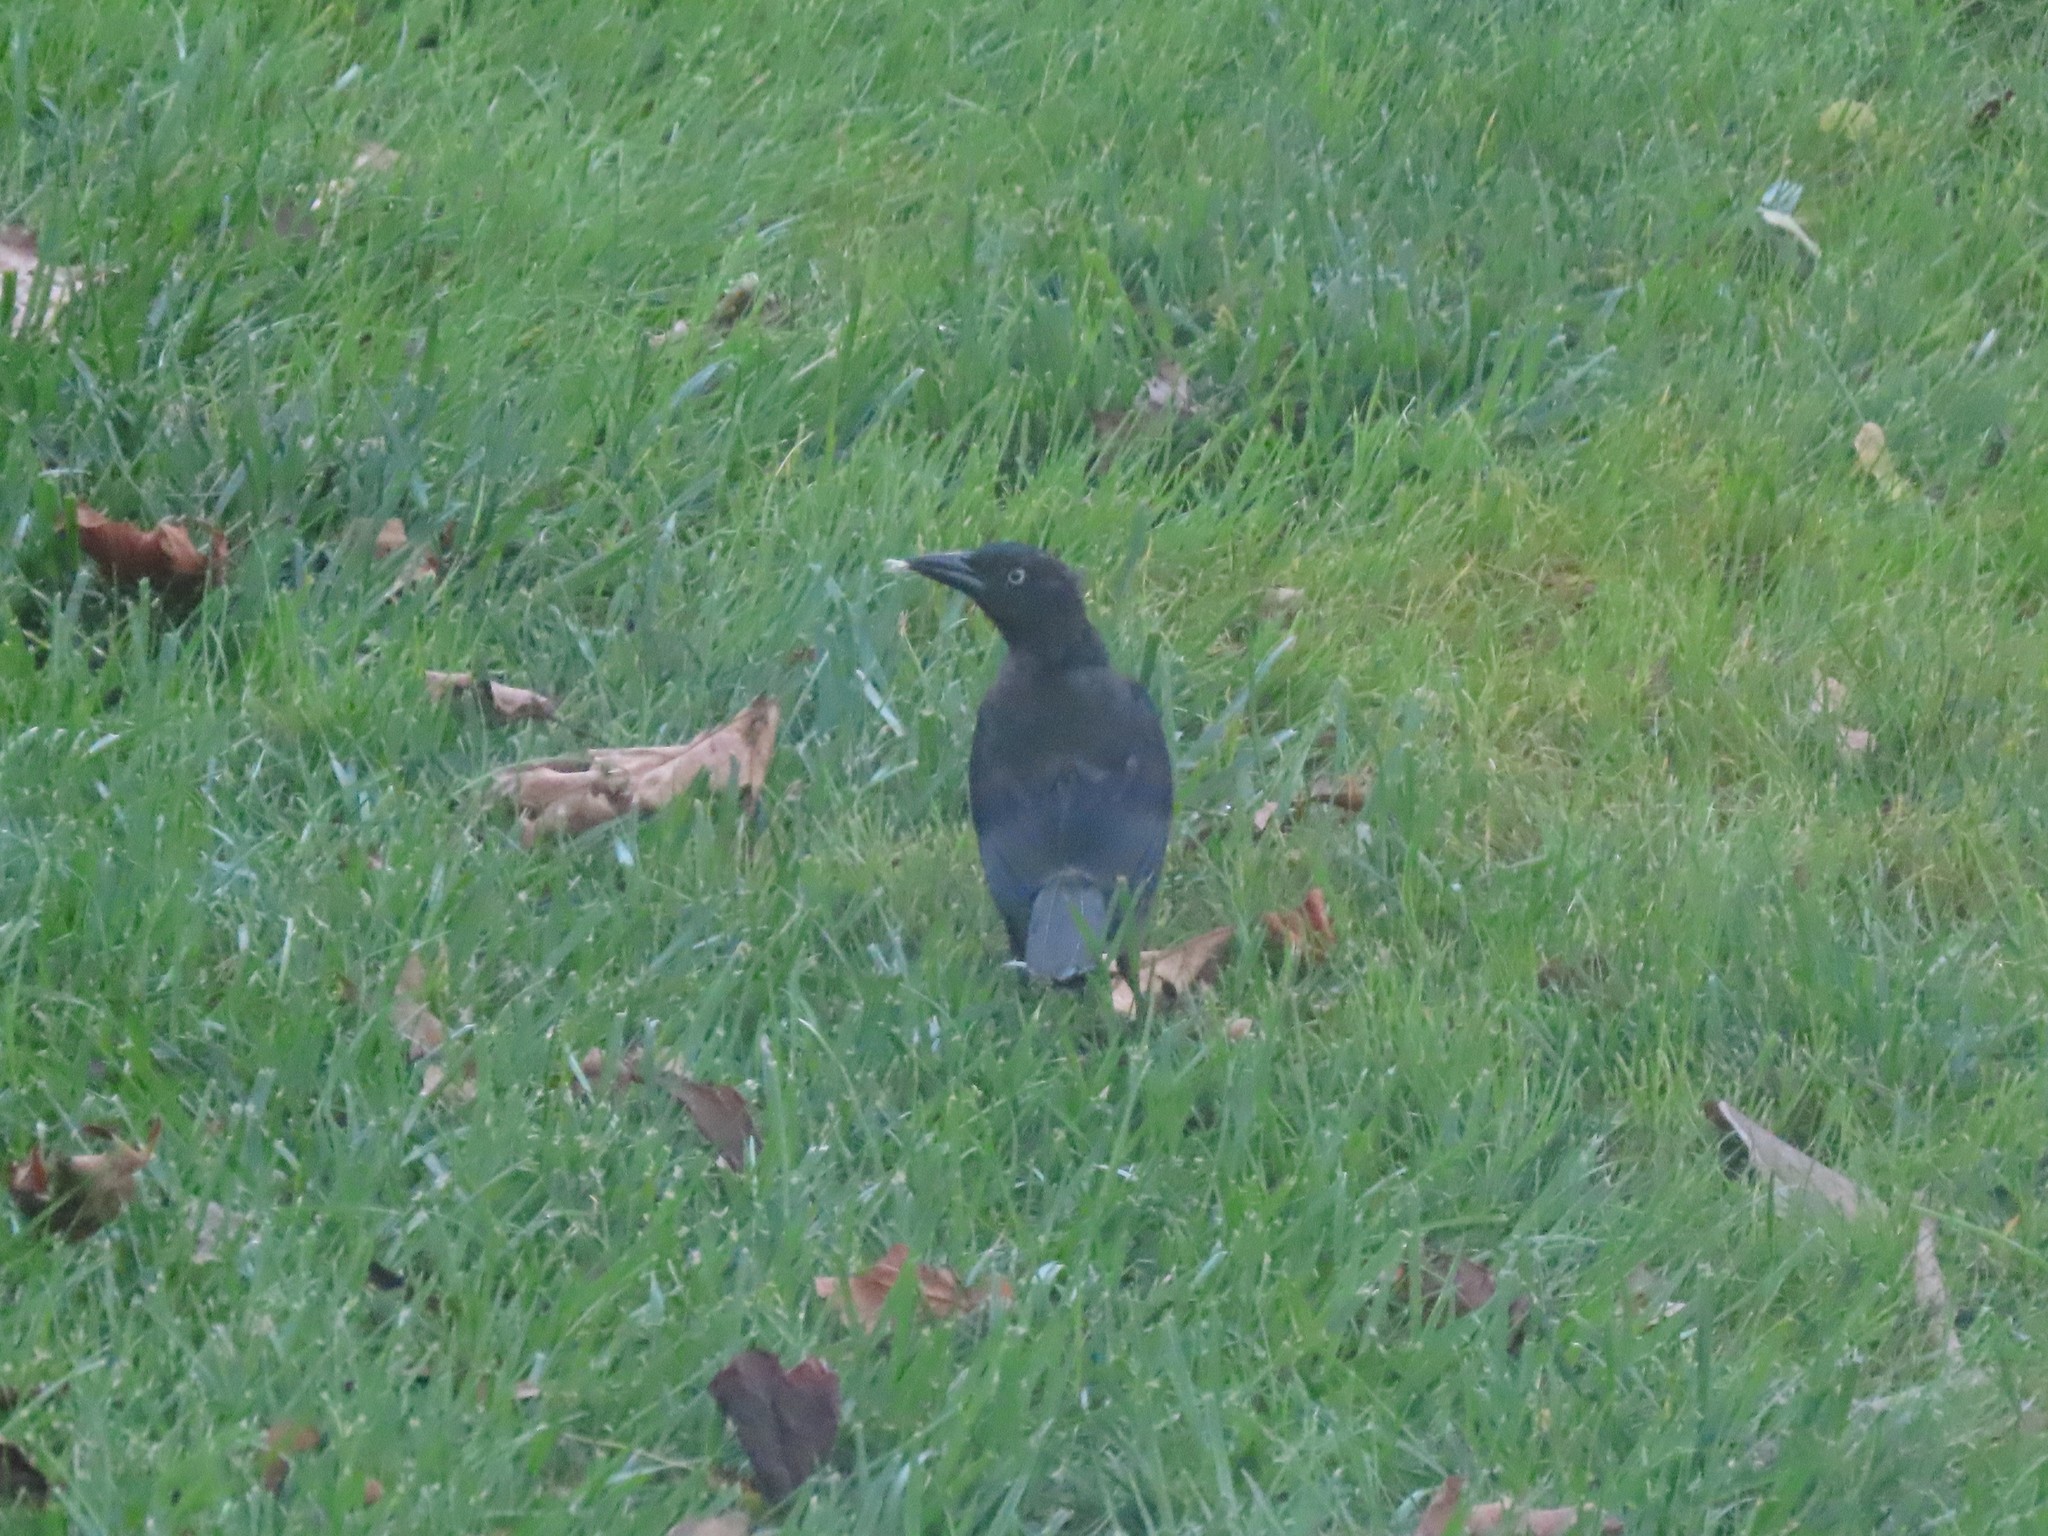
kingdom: Animalia
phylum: Chordata
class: Aves
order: Passeriformes
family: Icteridae
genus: Quiscalus
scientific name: Quiscalus quiscula
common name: Common grackle
